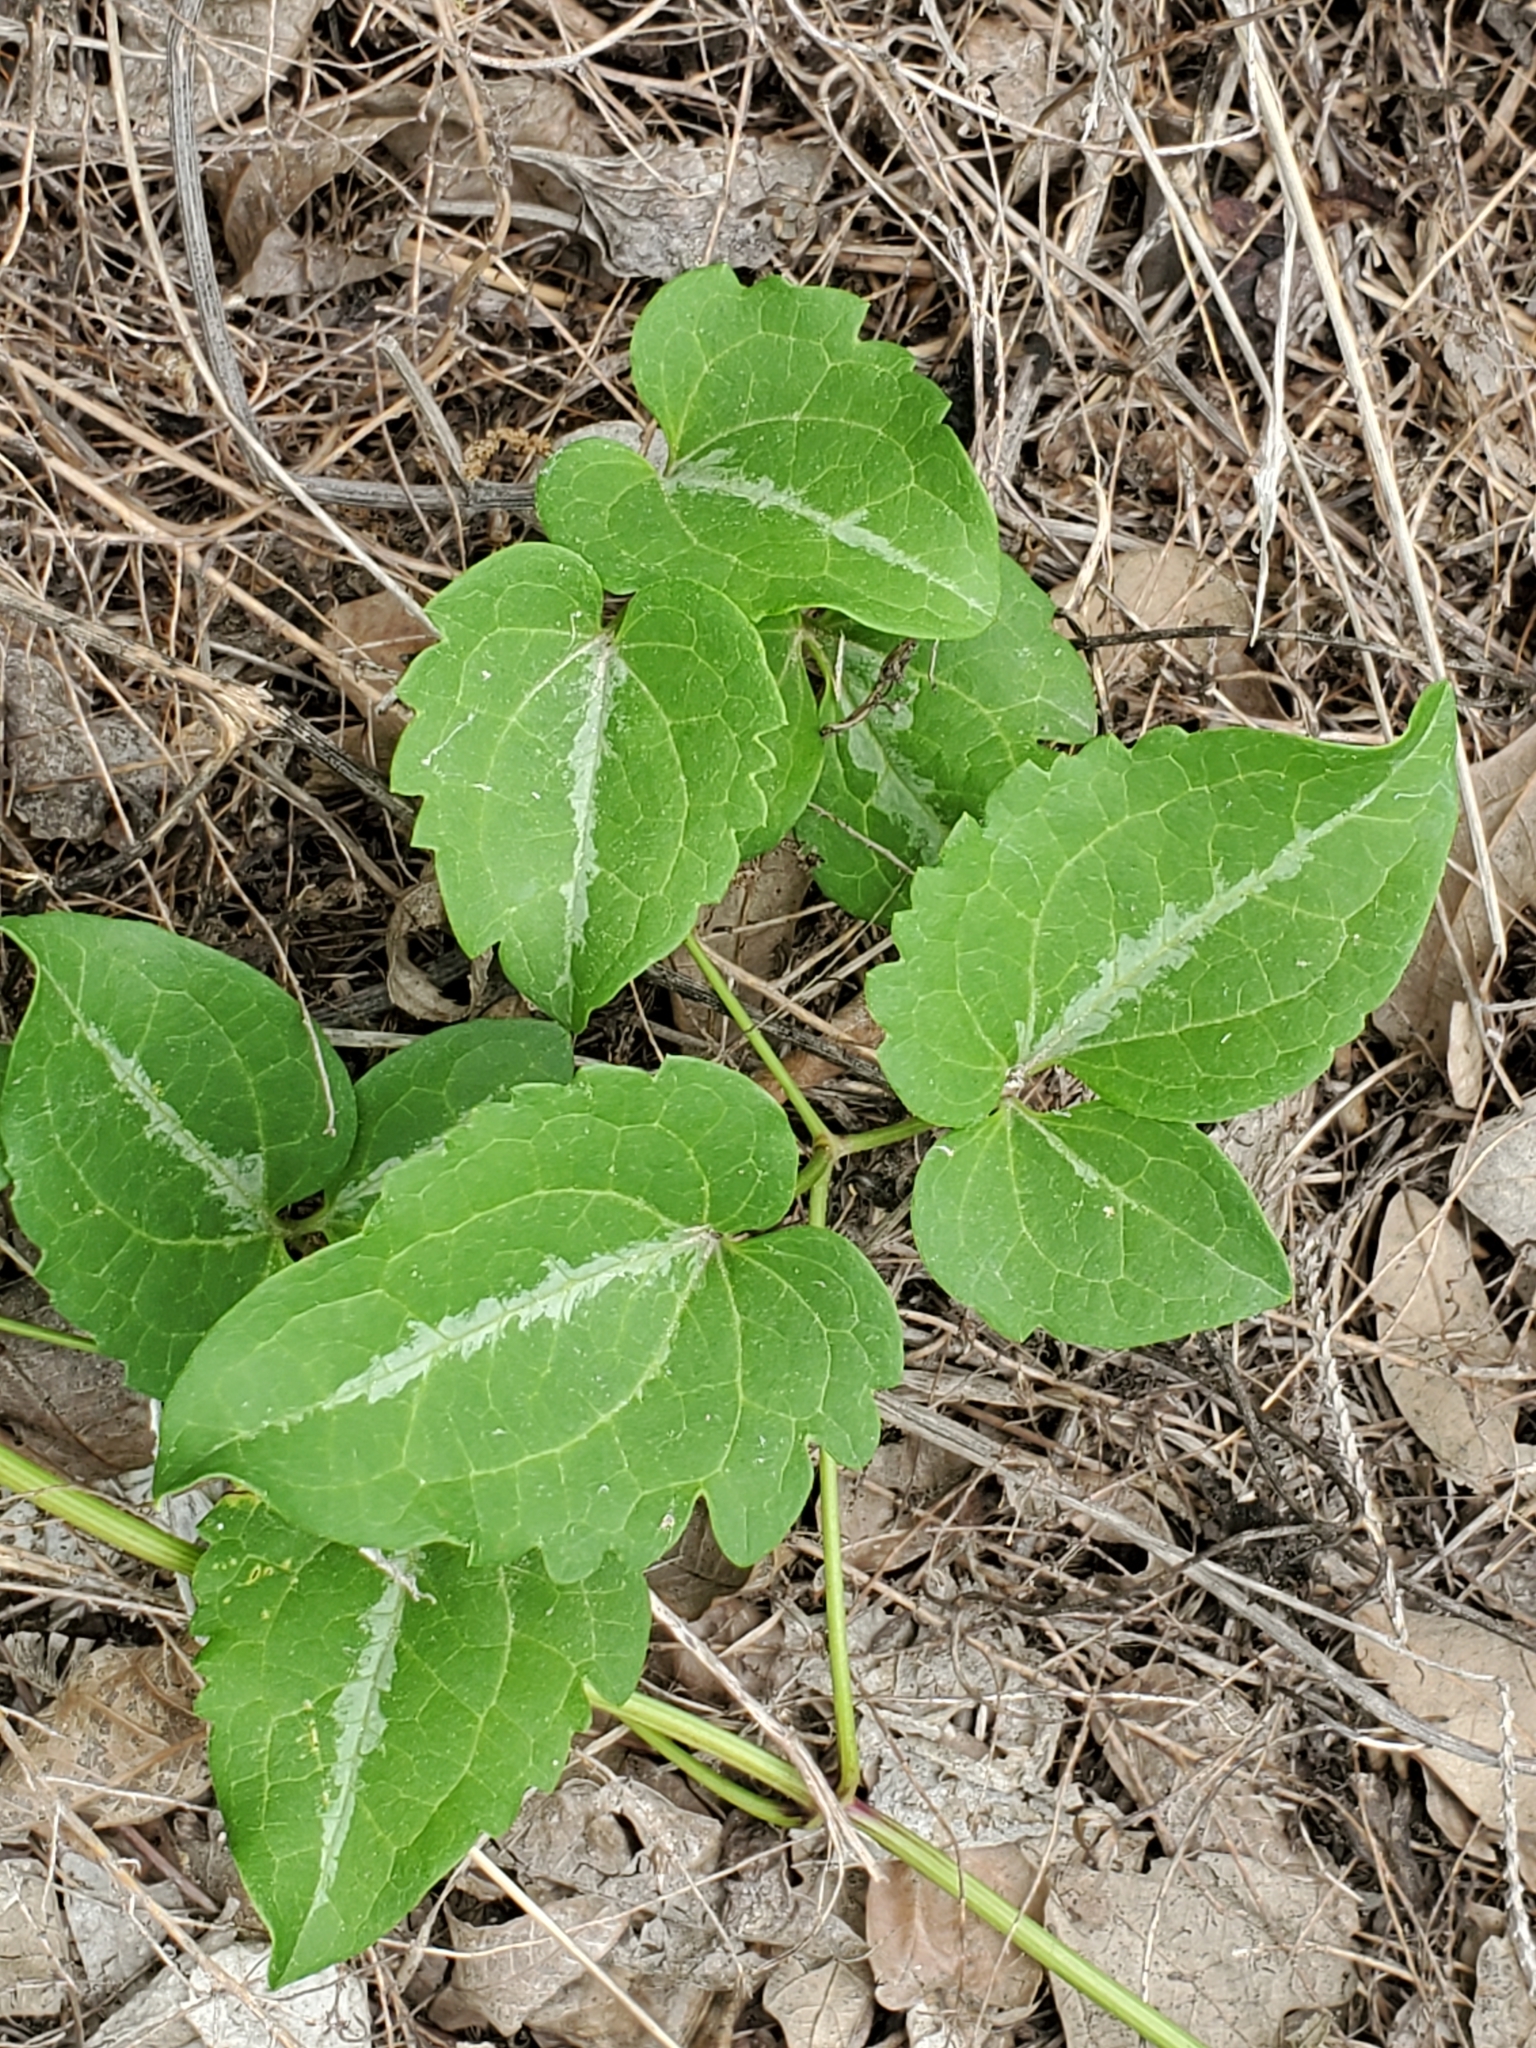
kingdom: Plantae
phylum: Tracheophyta
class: Magnoliopsida
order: Ranunculales
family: Ranunculaceae
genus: Clematis
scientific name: Clematis terniflora
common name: Sweet autumn clematis
